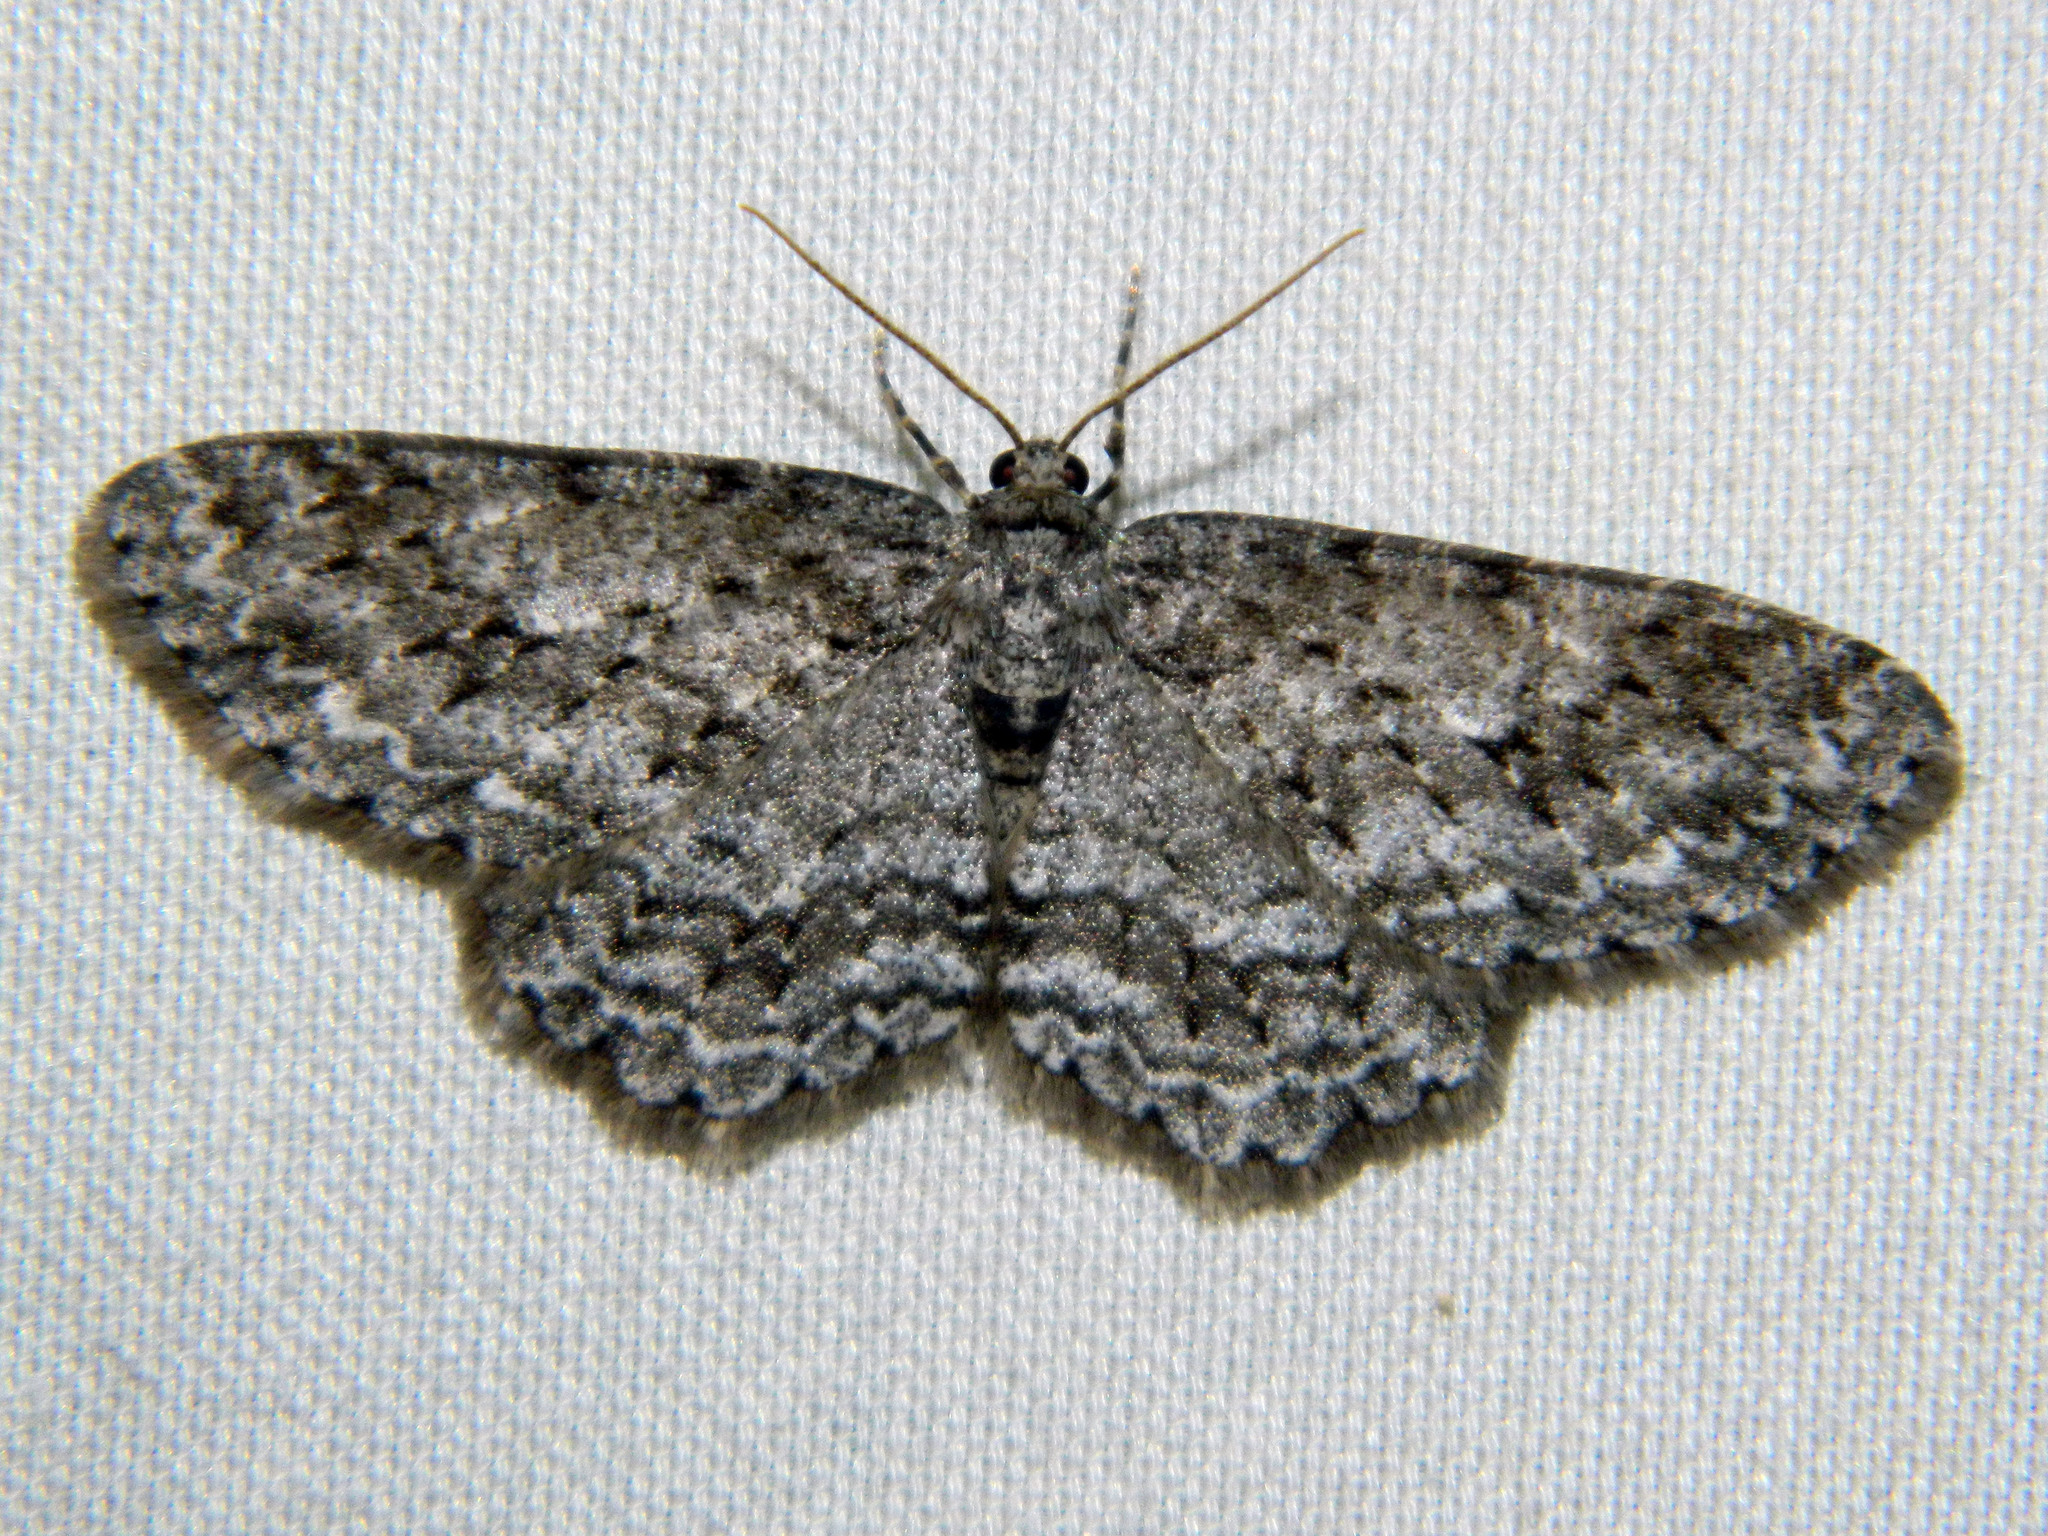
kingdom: Animalia
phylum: Arthropoda
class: Insecta
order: Lepidoptera
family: Geometridae
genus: Ectropis
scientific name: Ectropis crepuscularia
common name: Engrailed
